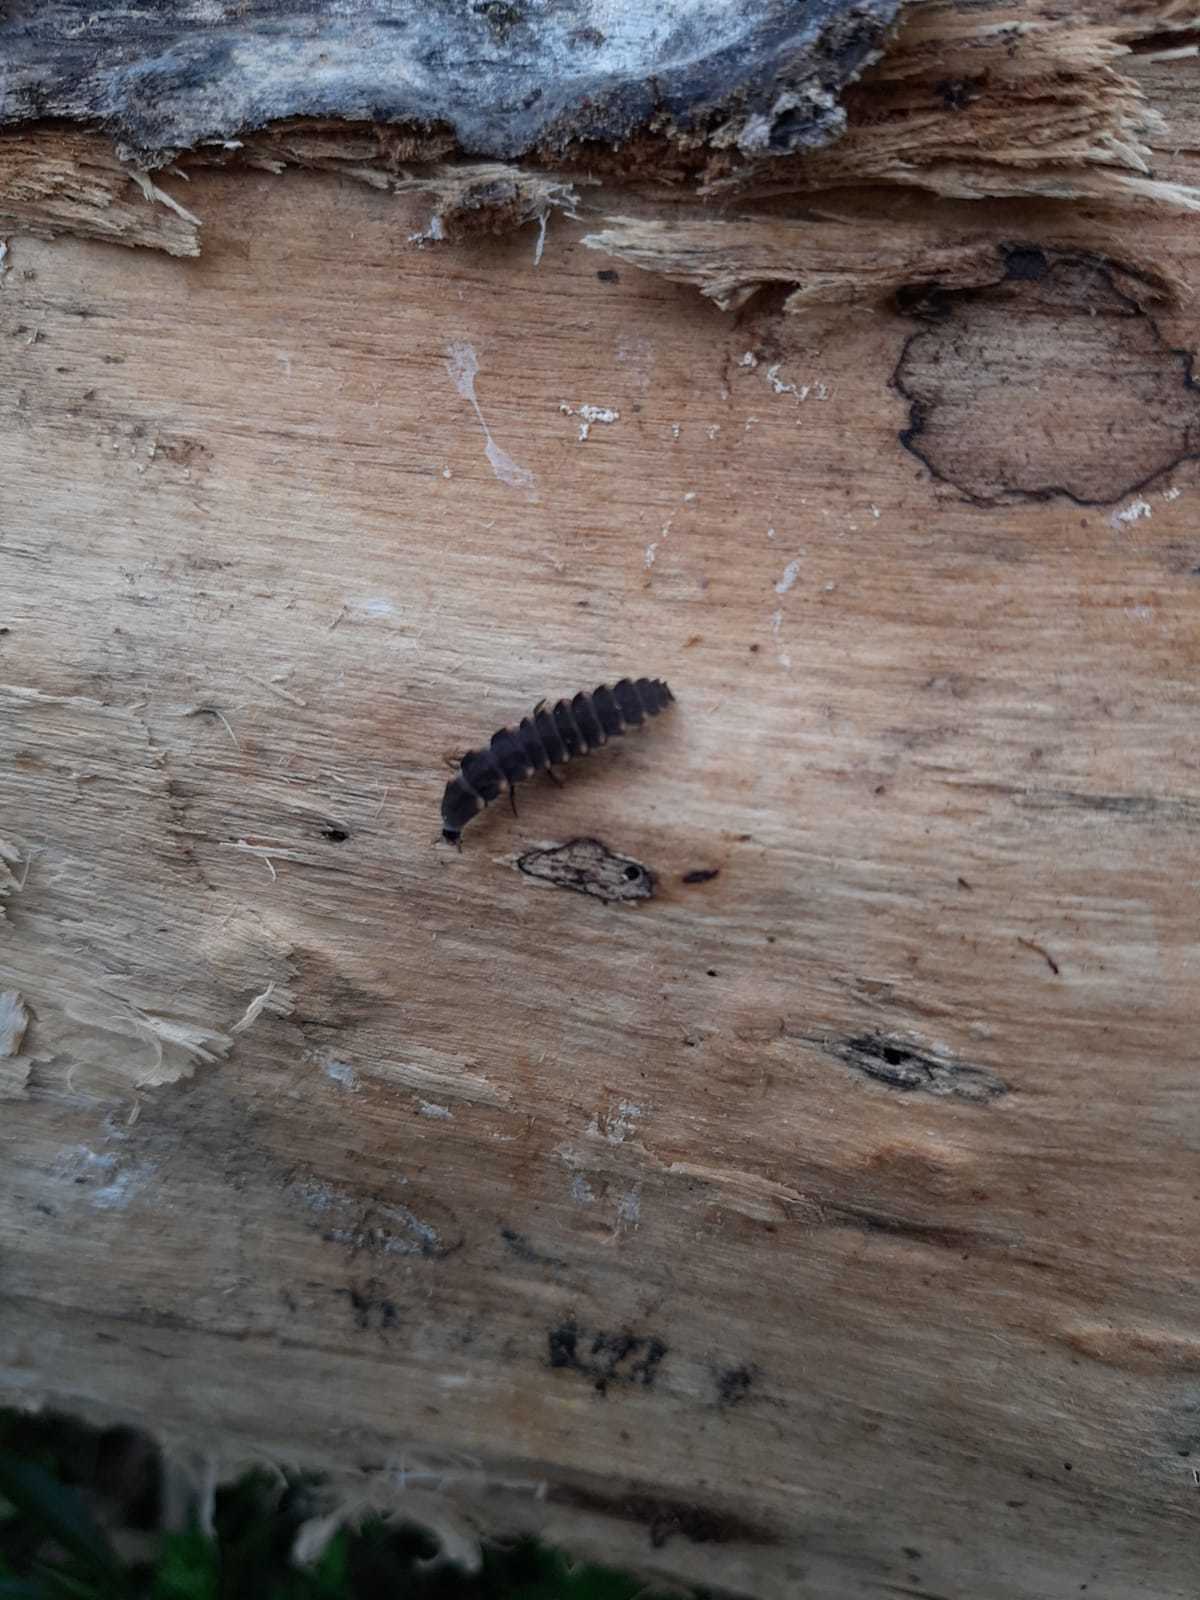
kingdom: Animalia
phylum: Arthropoda
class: Insecta
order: Coleoptera
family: Lampyridae
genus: Lampyris
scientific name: Lampyris noctiluca
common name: Glow-worm
